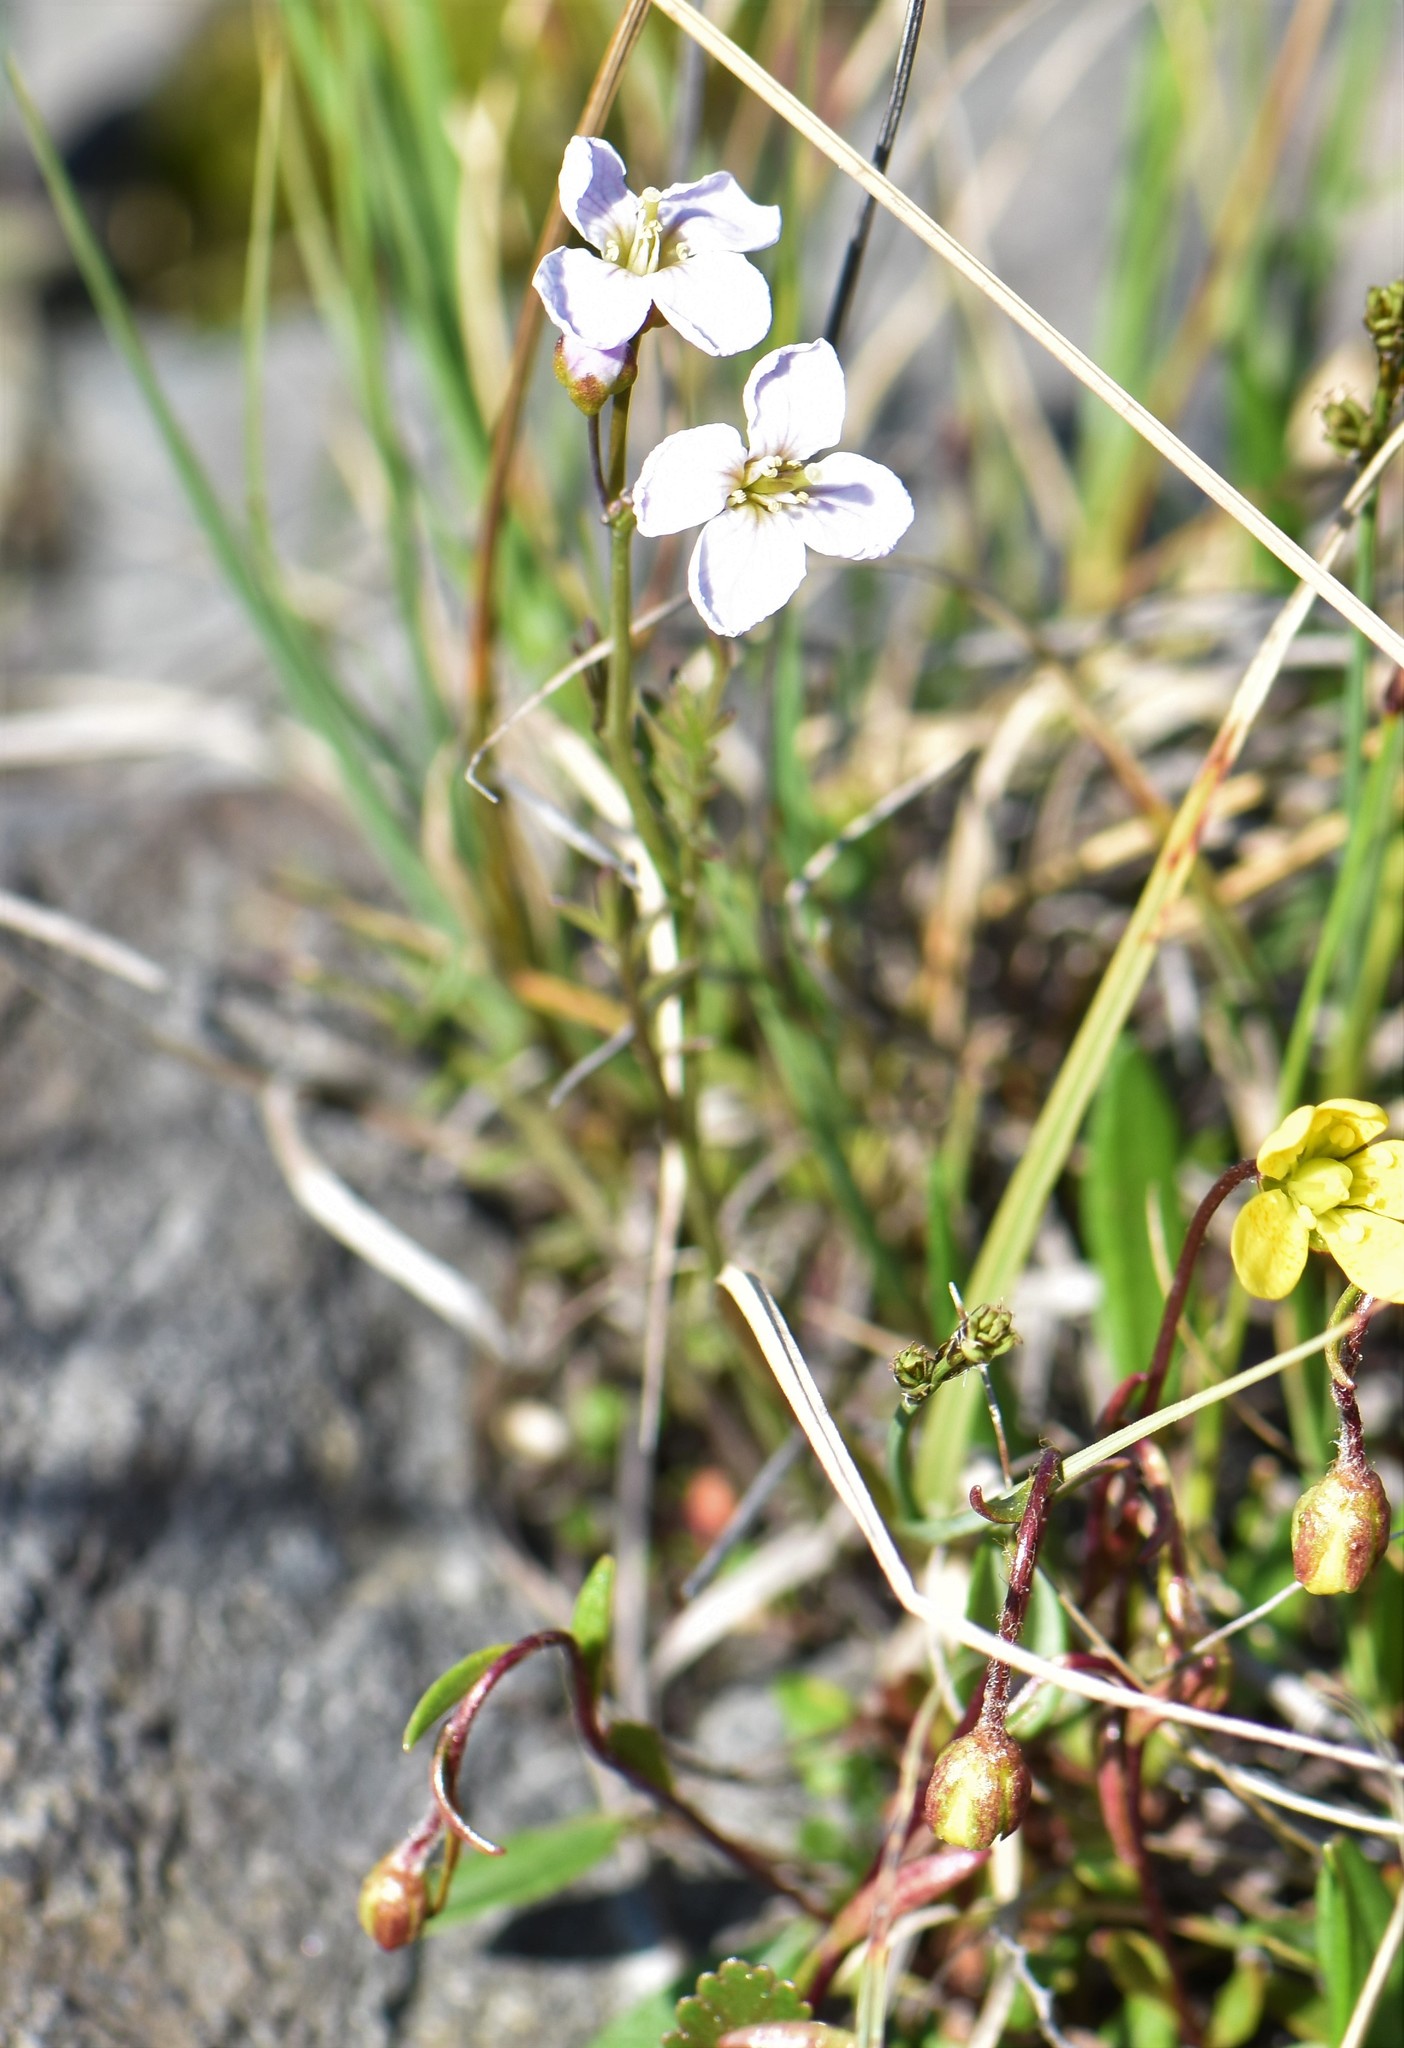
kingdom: Plantae
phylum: Tracheophyta
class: Magnoliopsida
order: Brassicales
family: Brassicaceae
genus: Cardamine
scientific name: Cardamine nymanii
